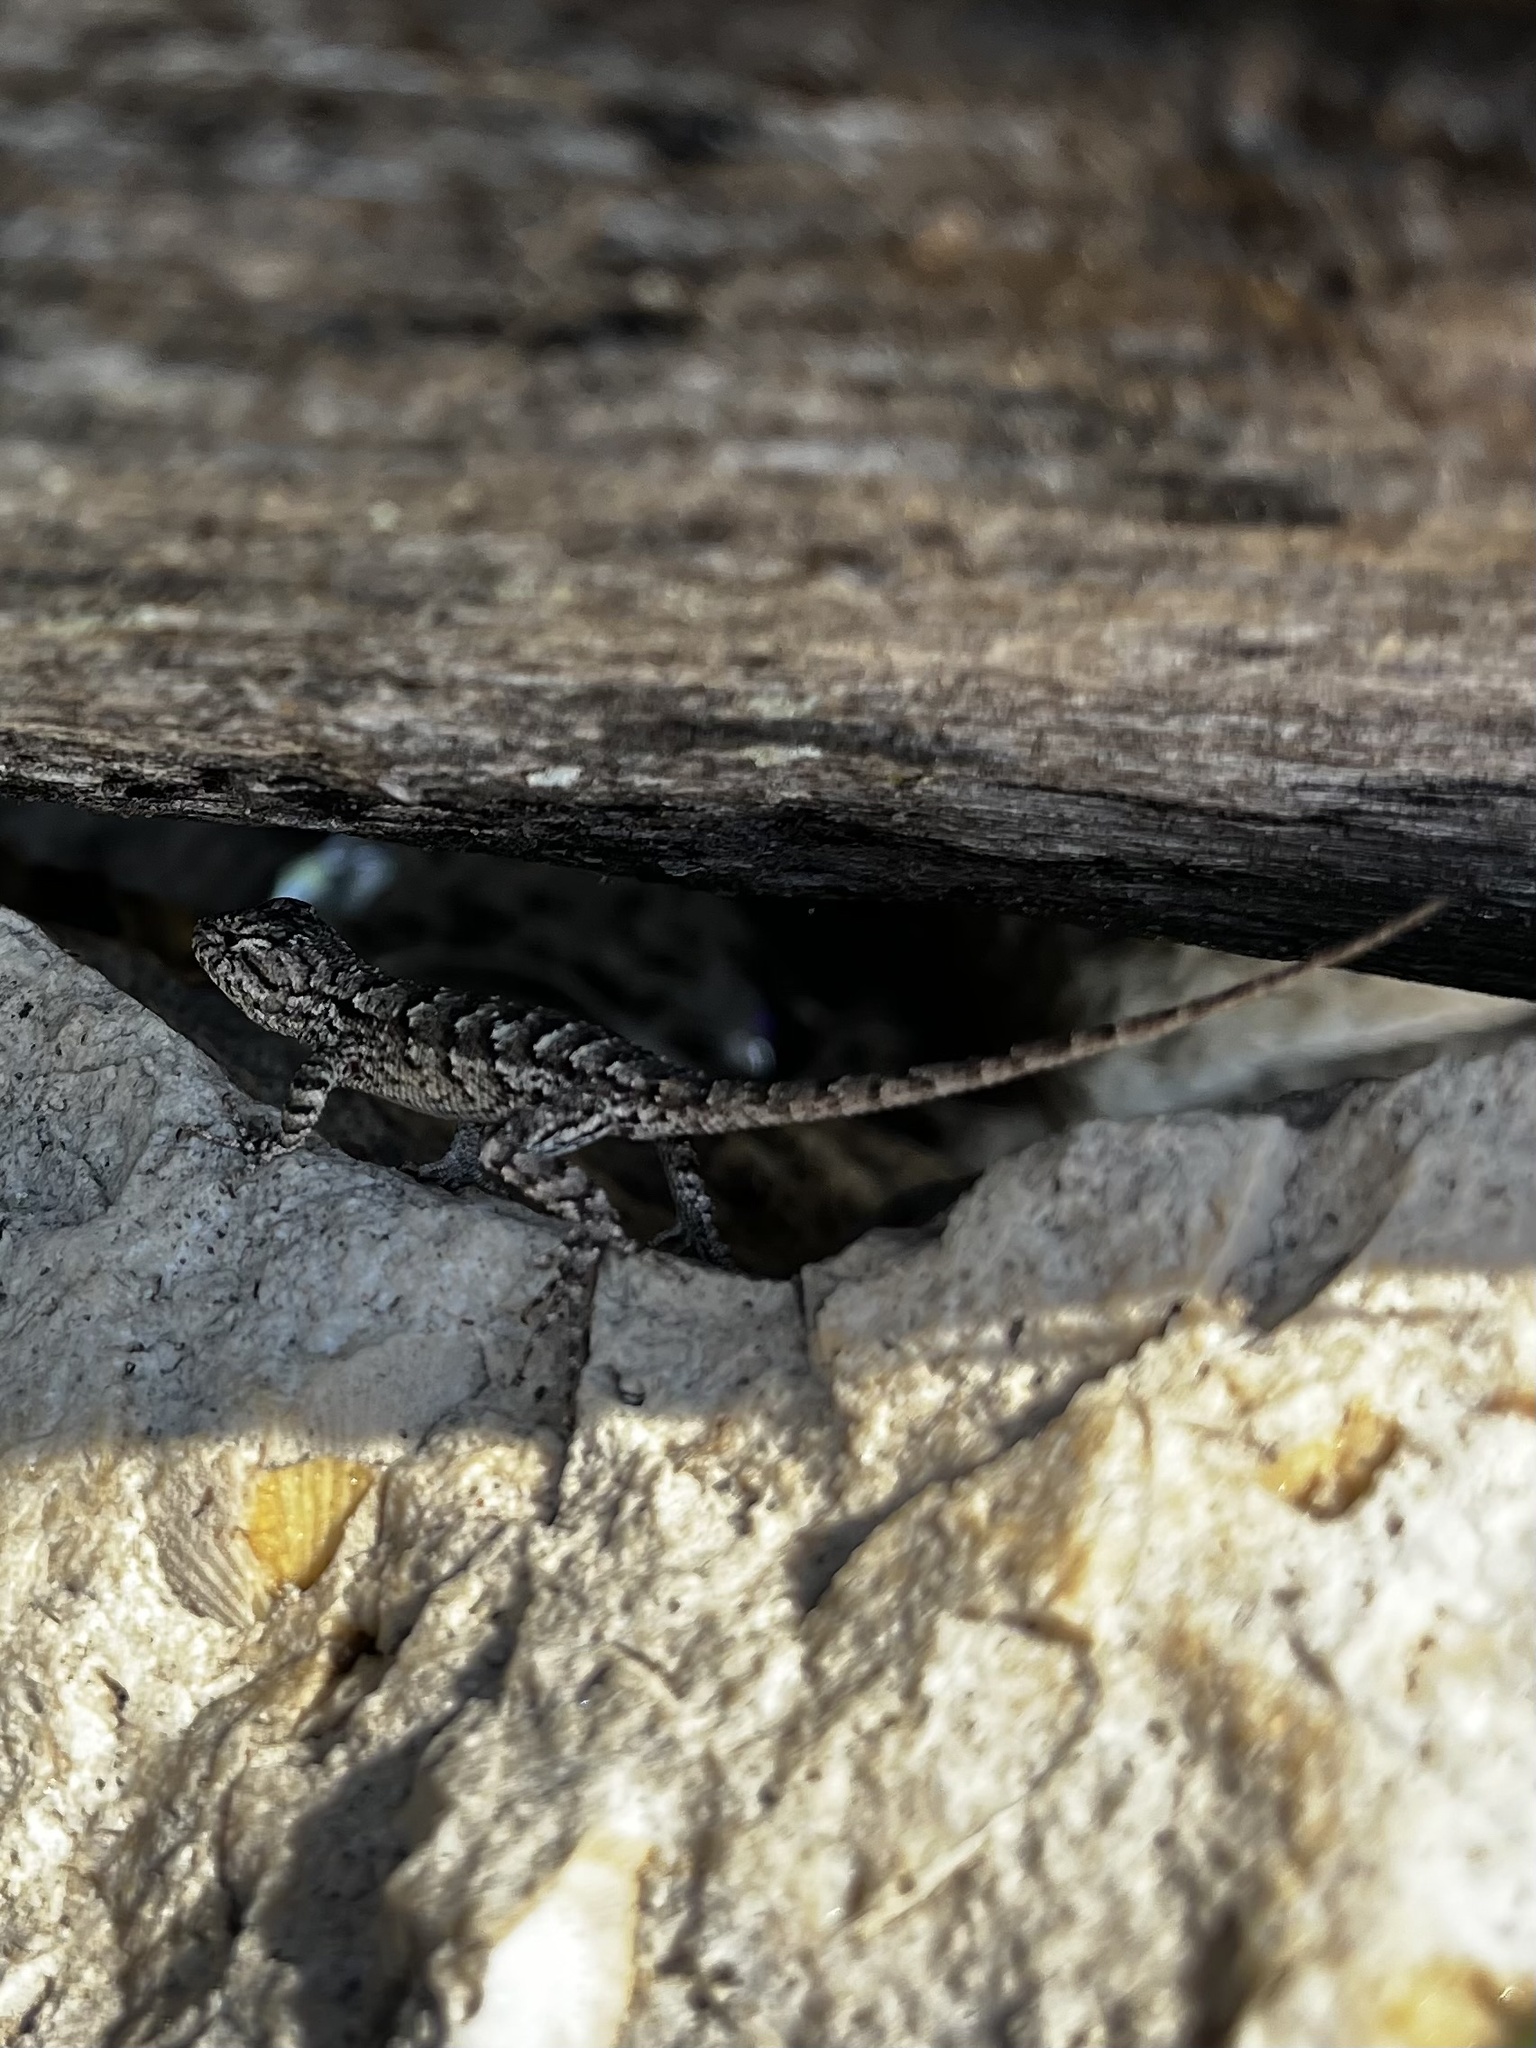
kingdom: Animalia
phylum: Chordata
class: Squamata
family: Phrynosomatidae
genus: Sceloporus
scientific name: Sceloporus undulatus
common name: Eastern fence lizard
